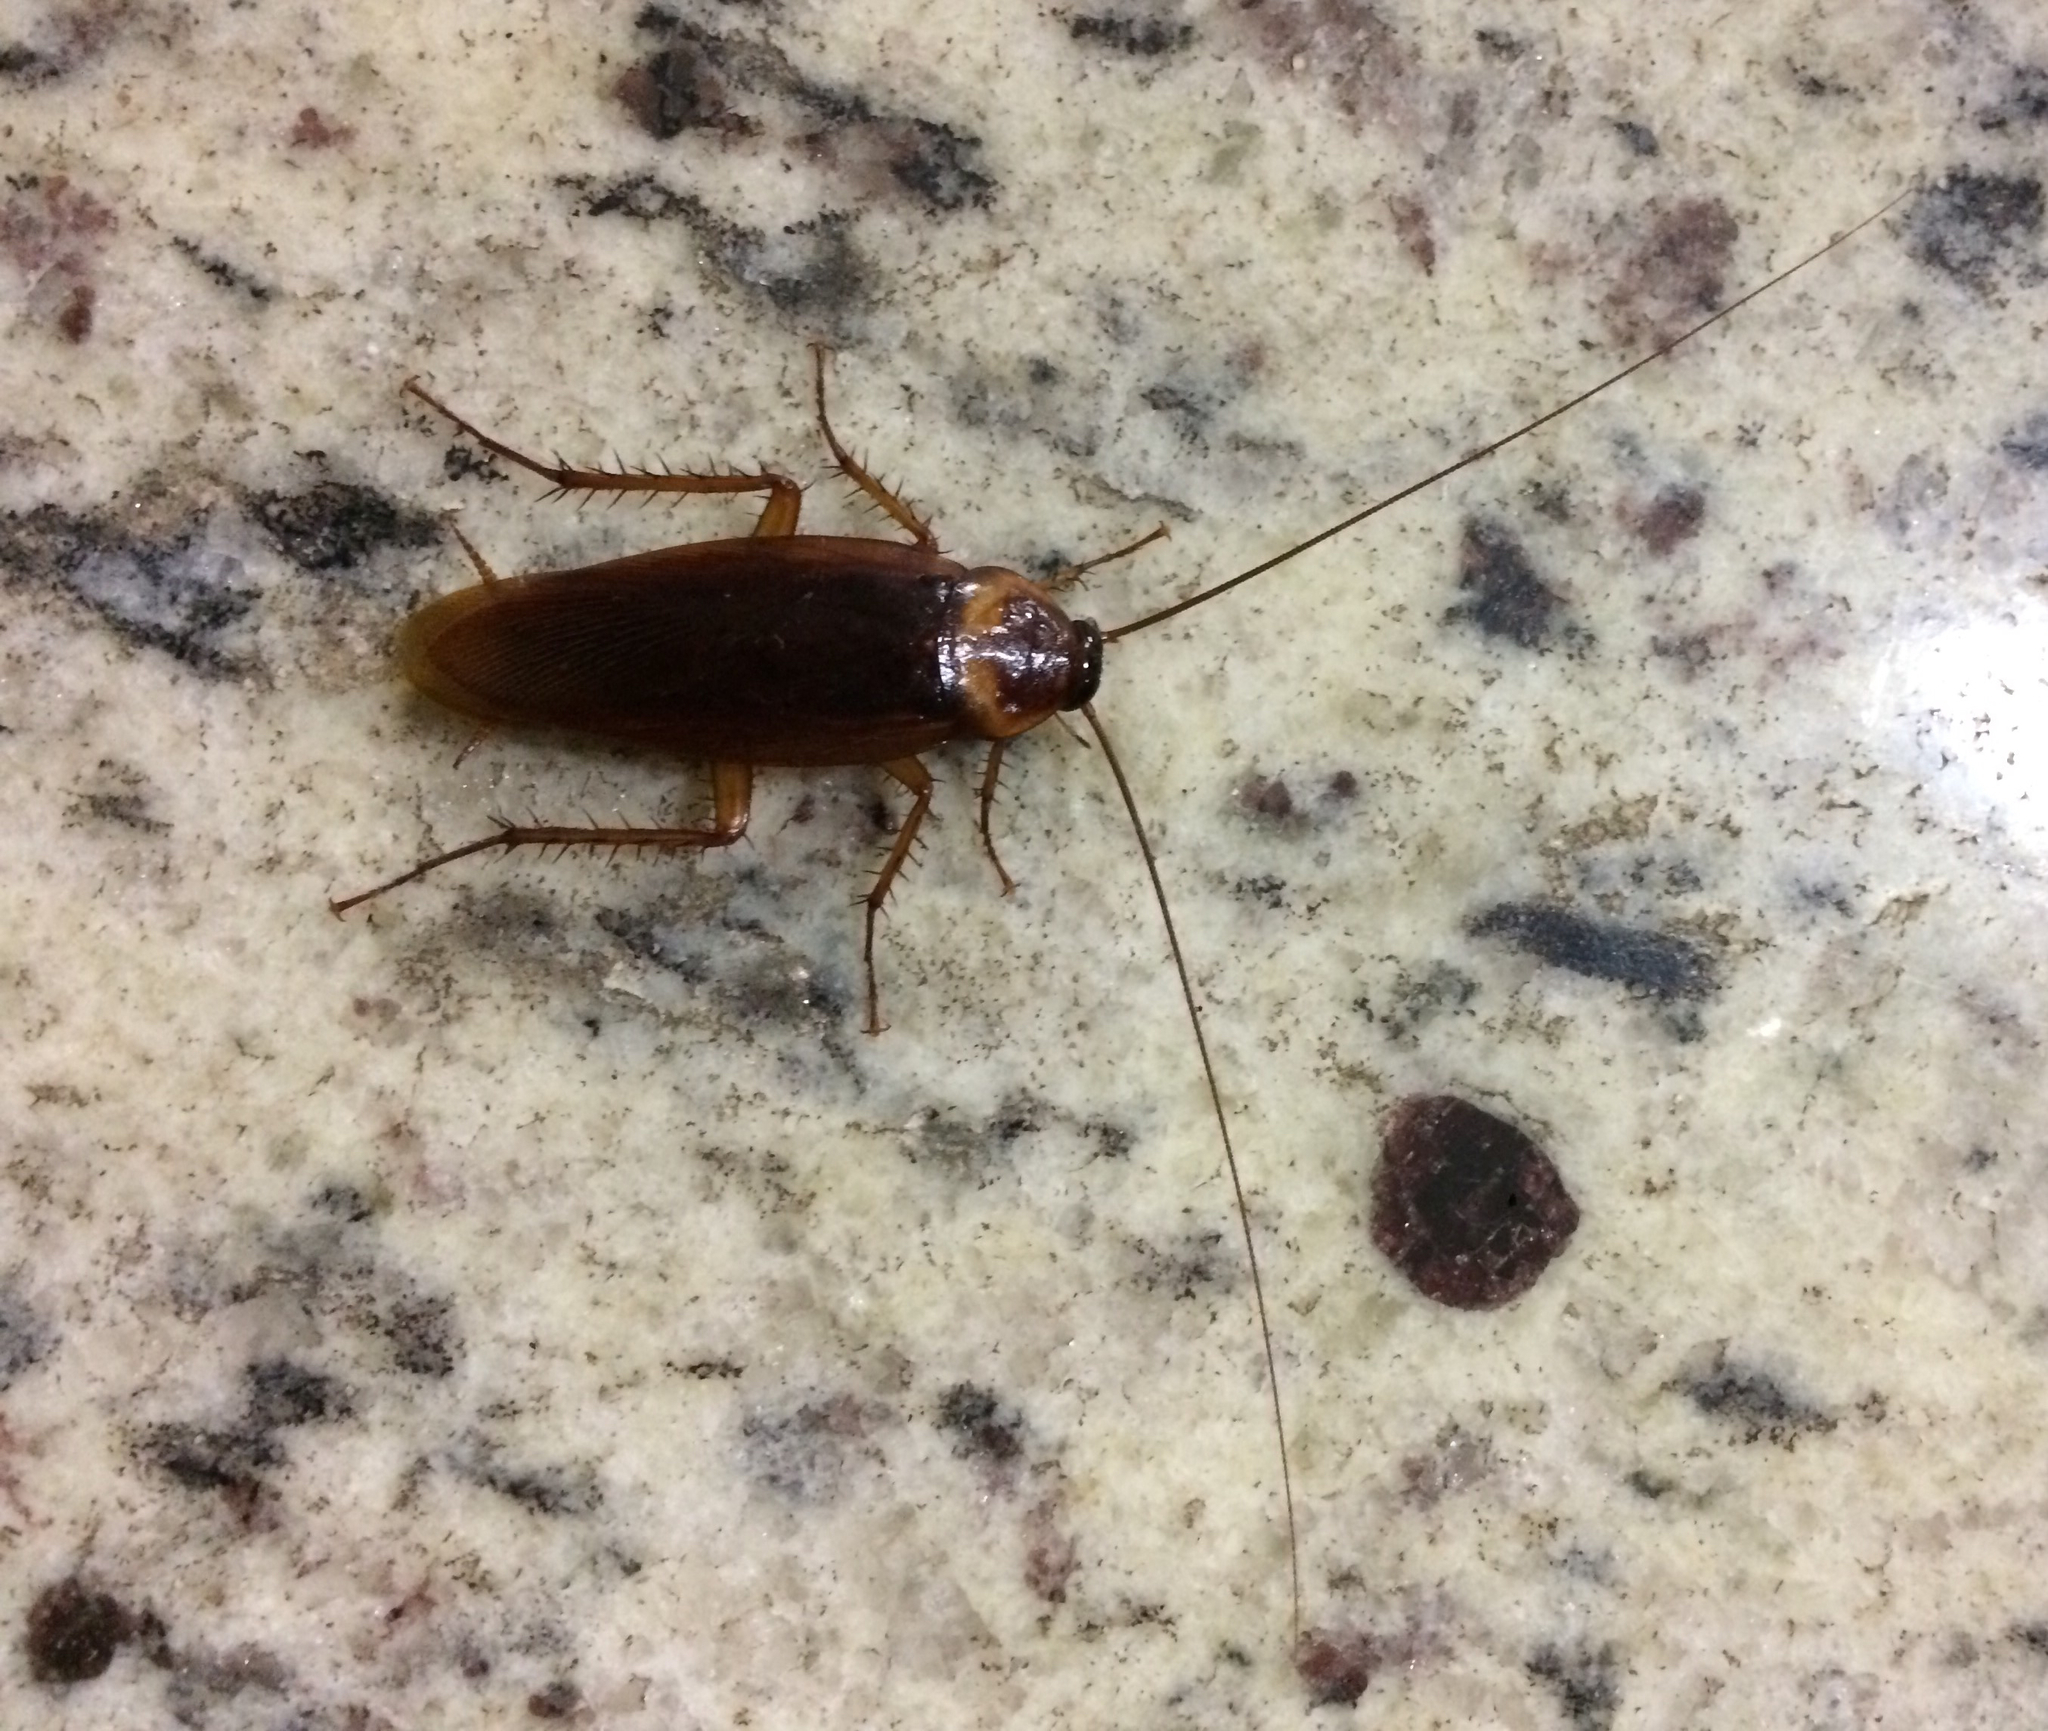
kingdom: Animalia
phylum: Arthropoda
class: Insecta
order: Blattodea
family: Blattidae
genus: Periplaneta
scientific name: Periplaneta americana
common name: American cockroach
